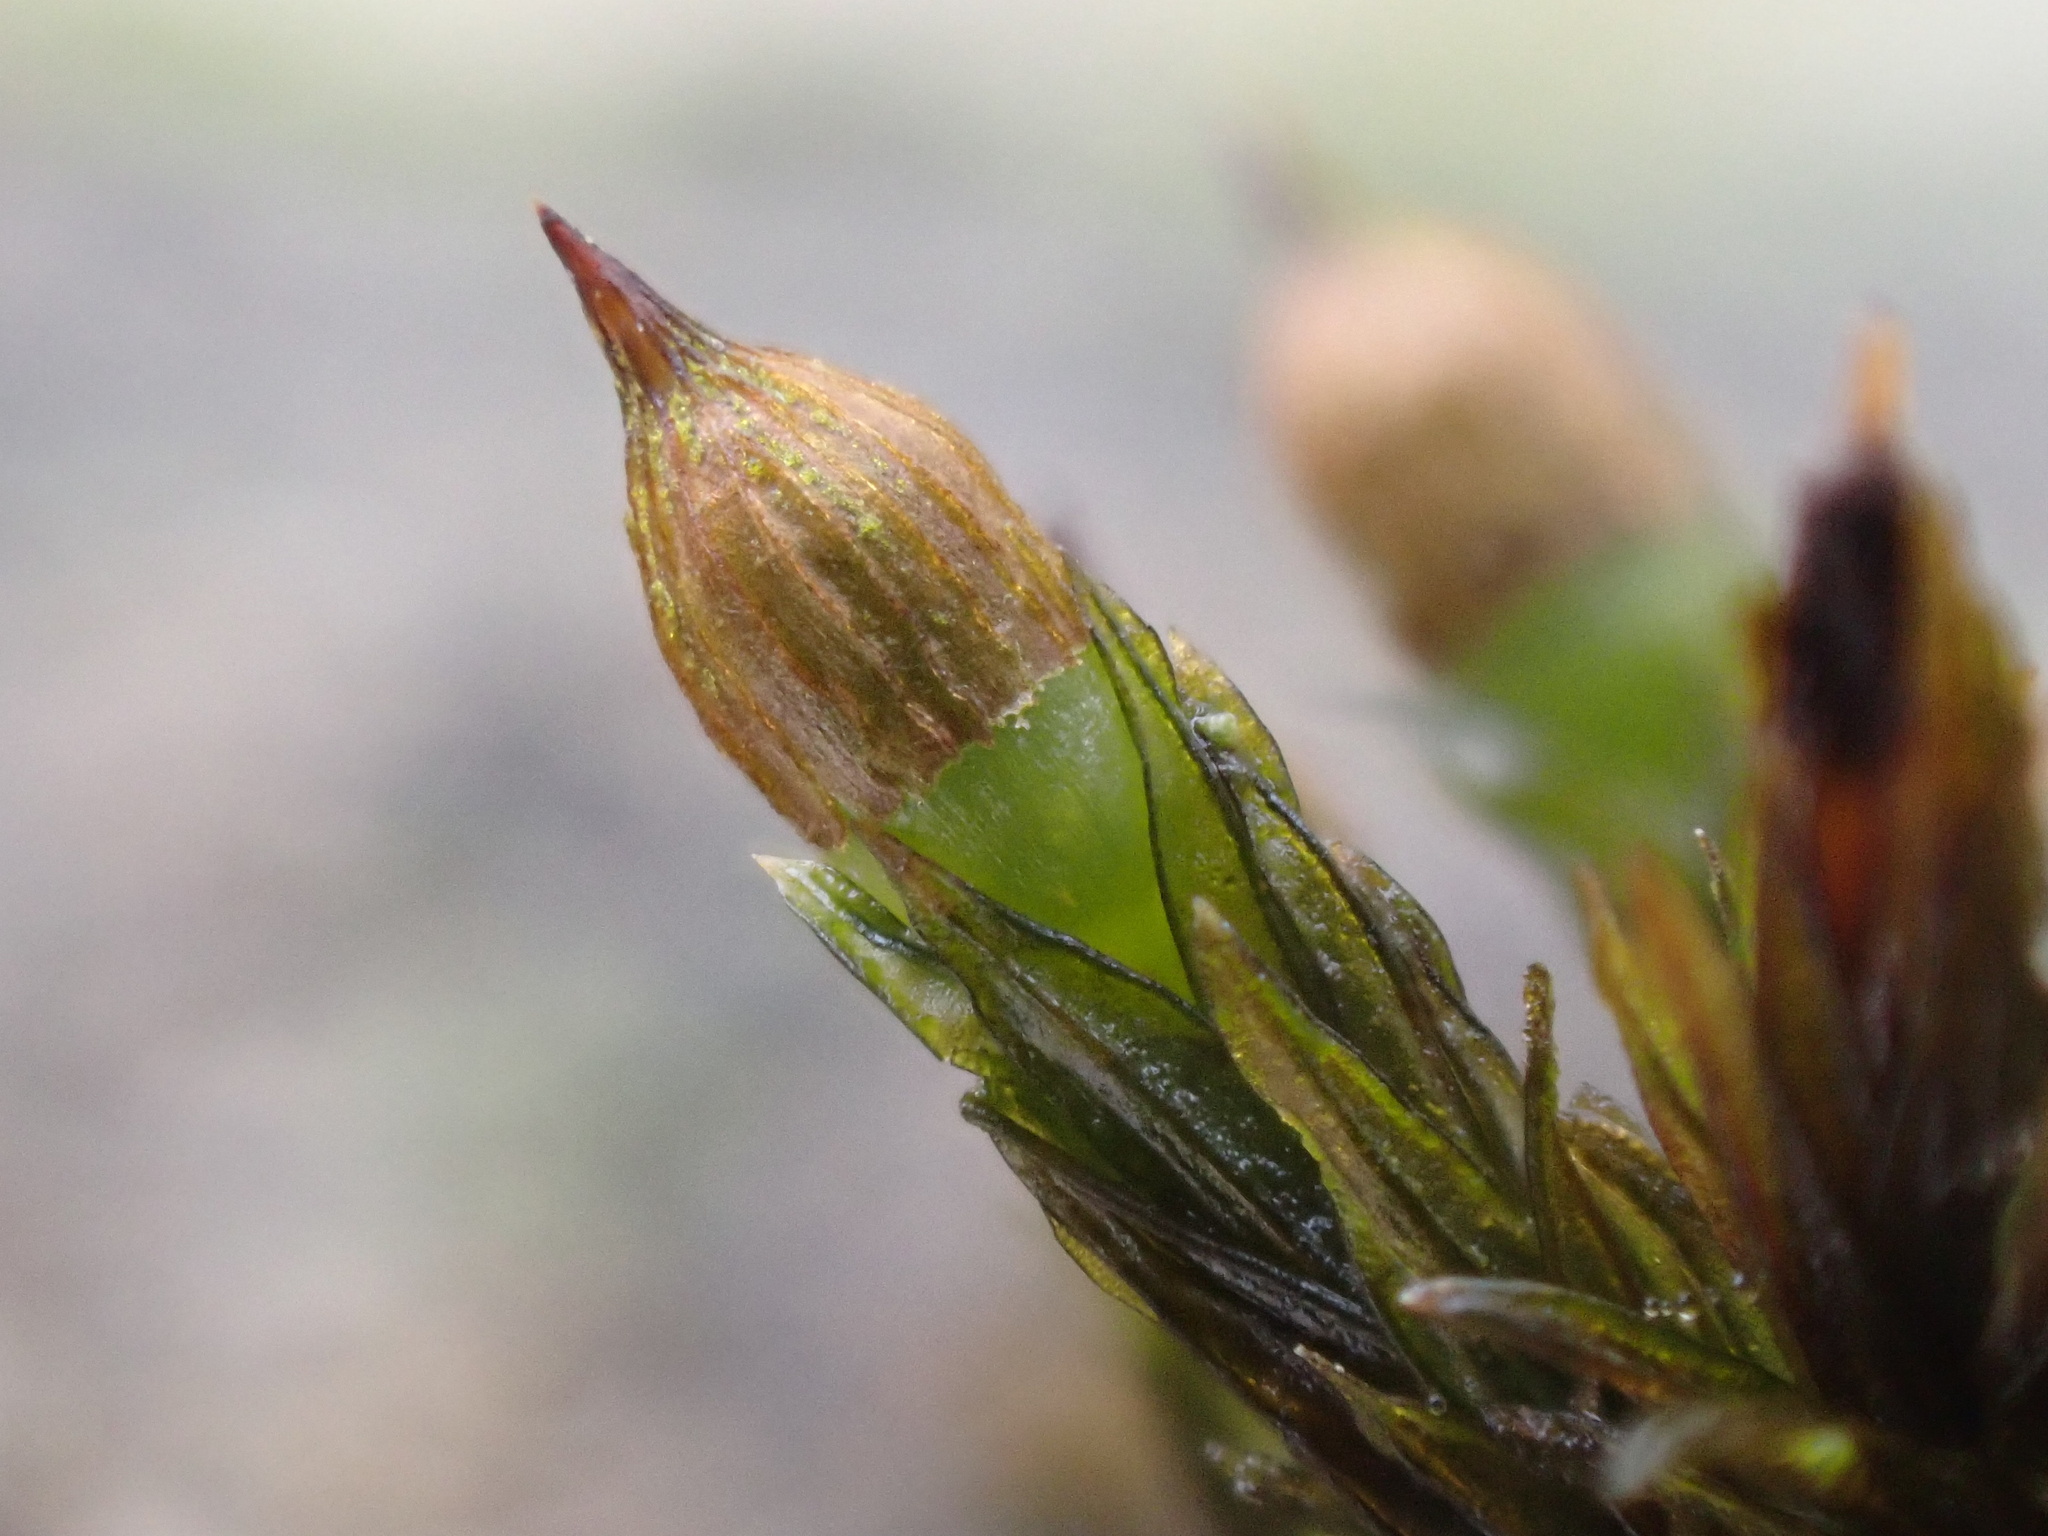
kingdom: Plantae
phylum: Bryophyta
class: Bryopsida
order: Orthotrichales
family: Orthotrichaceae
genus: Orthotrichum
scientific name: Orthotrichum cupulatum
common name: Hooded bristle-moss
